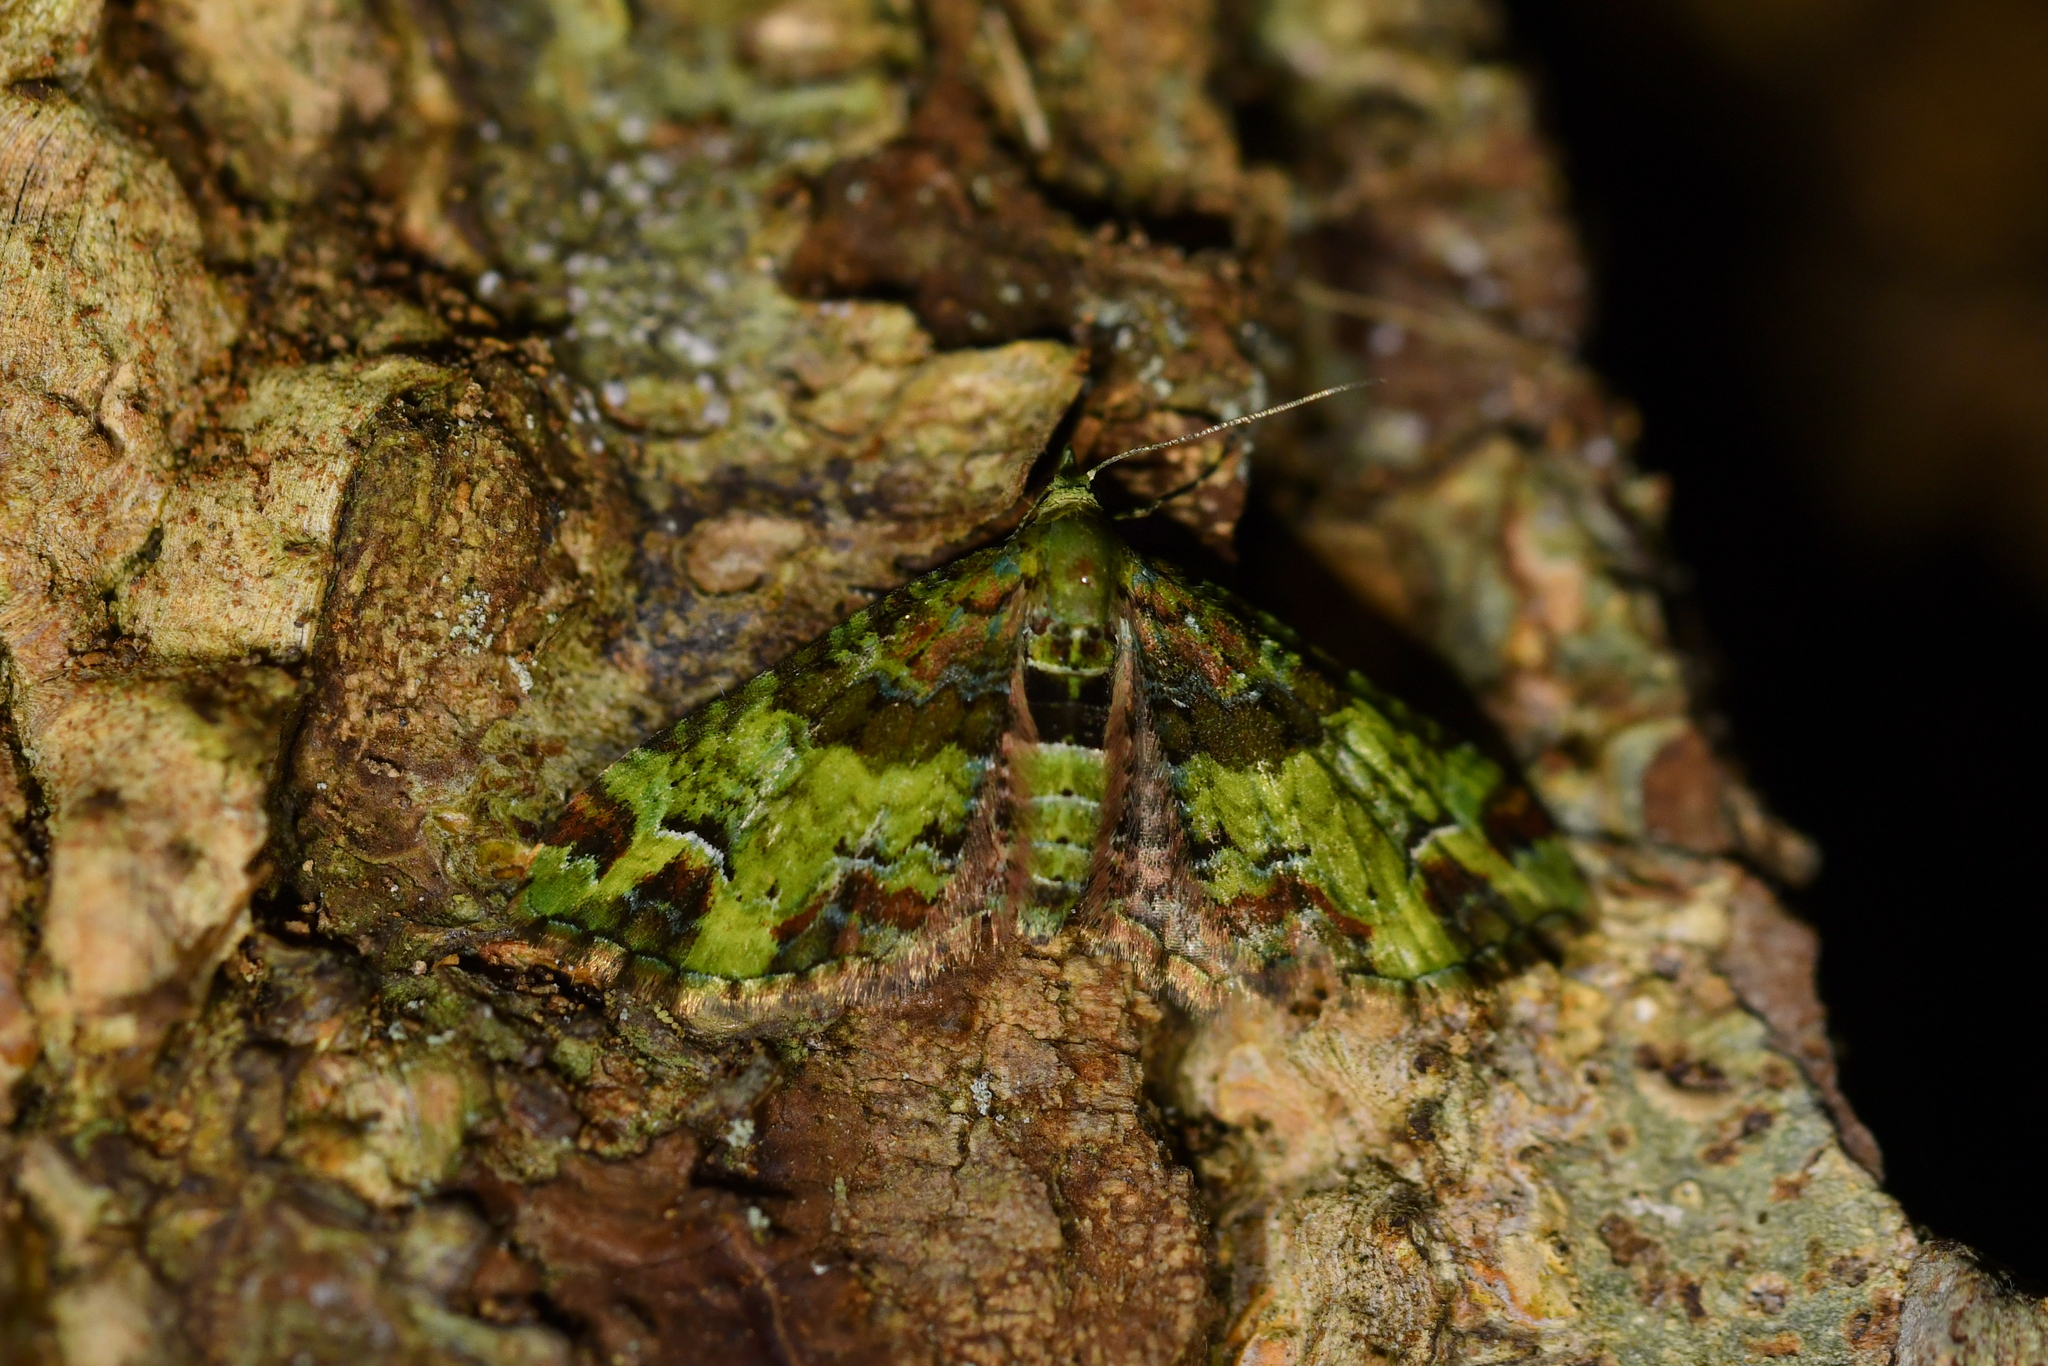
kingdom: Animalia
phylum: Arthropoda
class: Insecta
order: Lepidoptera
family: Geometridae
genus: Pasiphila
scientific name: Pasiphila malachita
